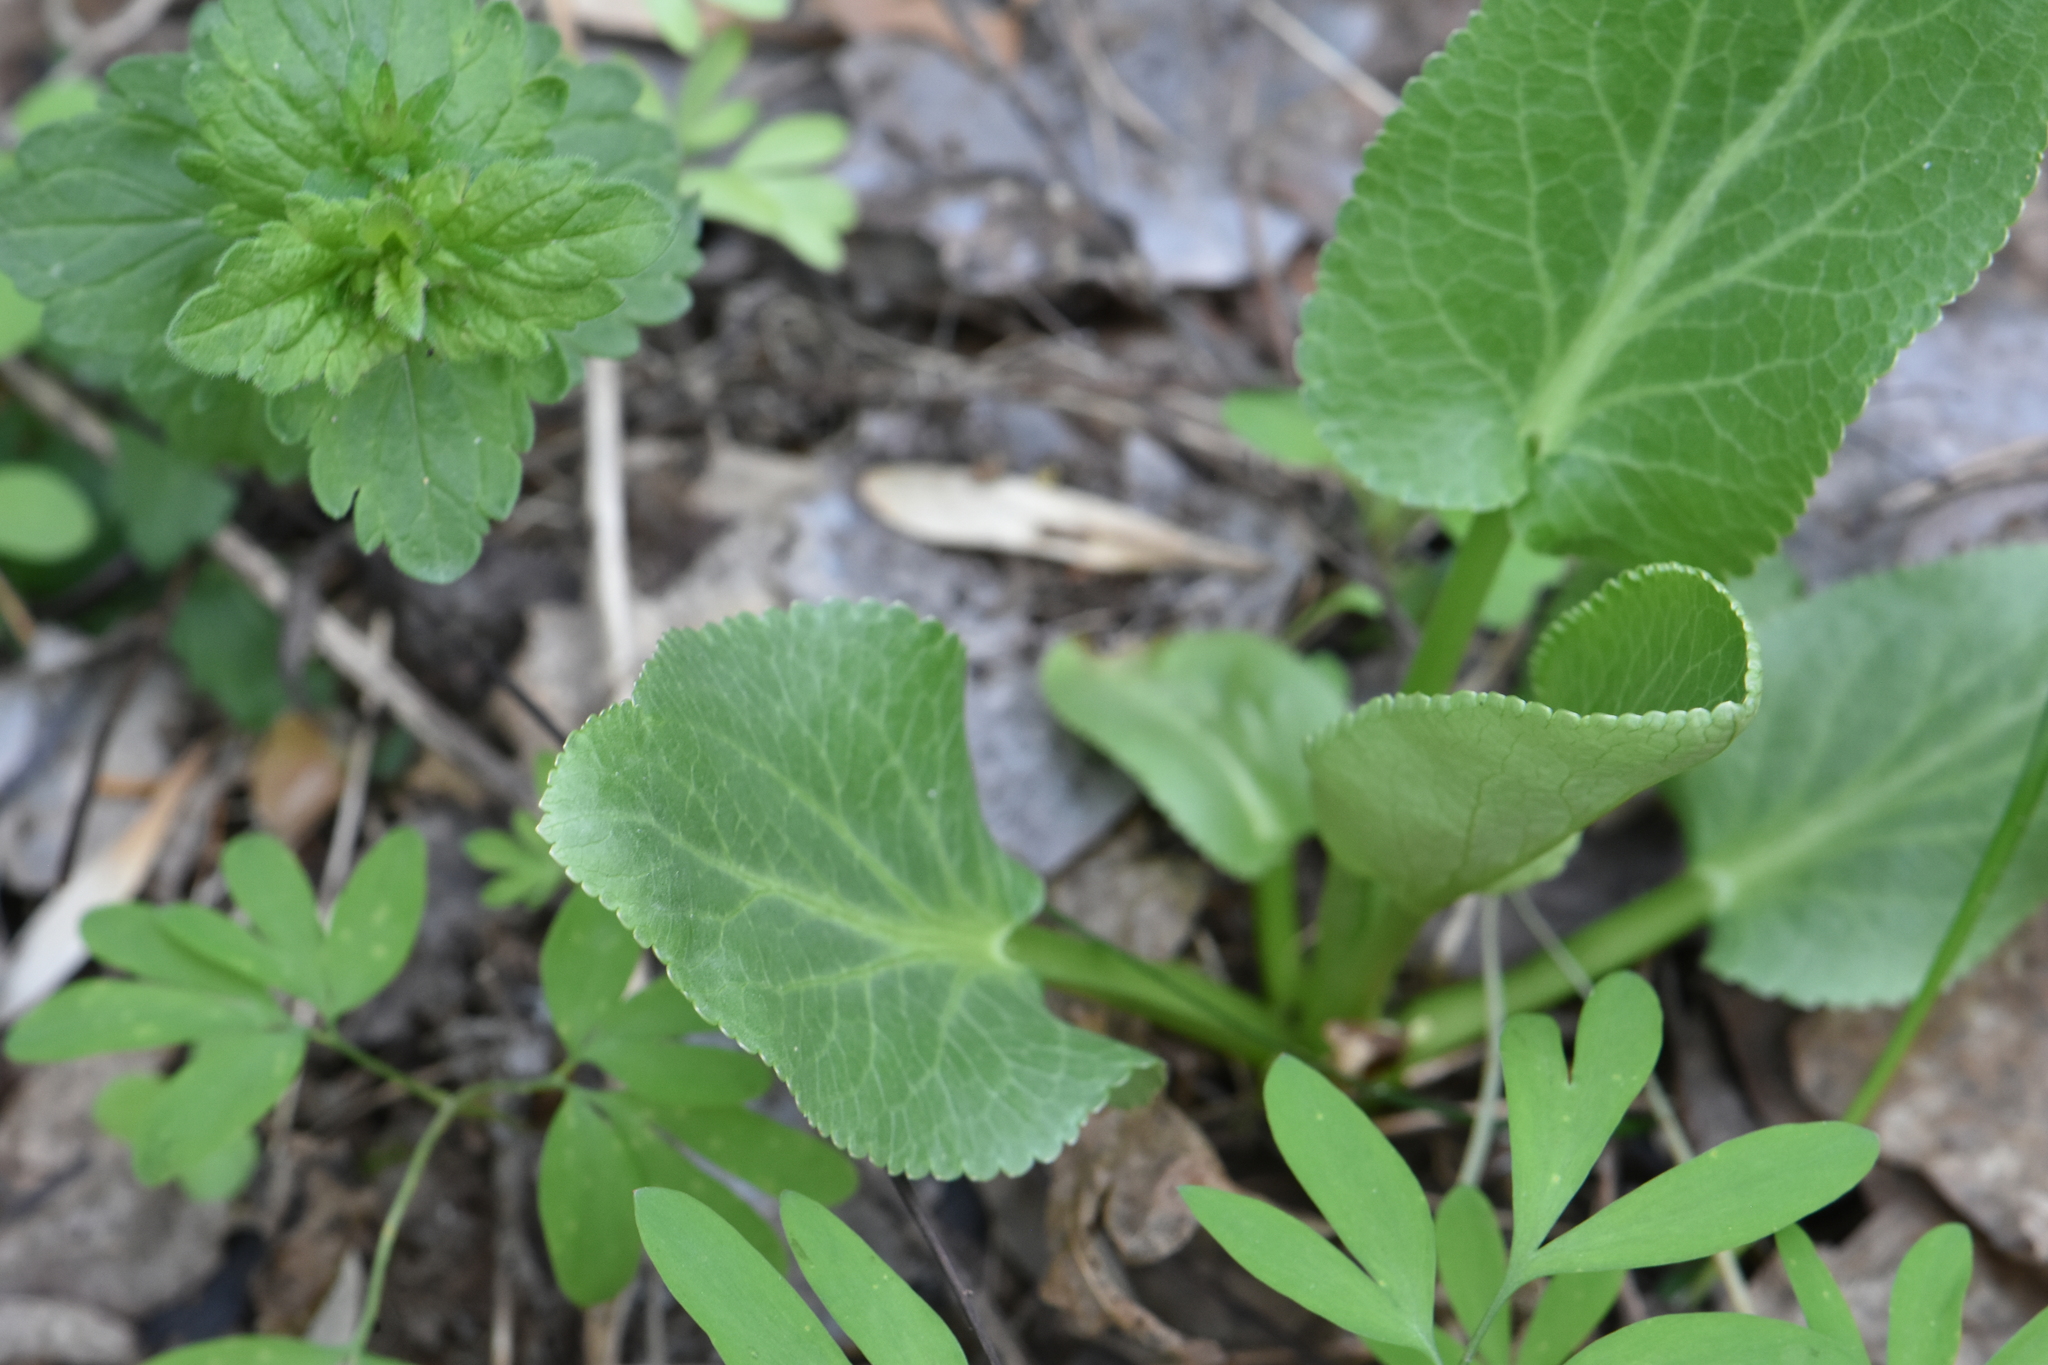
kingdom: Plantae
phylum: Tracheophyta
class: Magnoliopsida
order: Apiales
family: Apiaceae
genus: Eryngium
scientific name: Eryngium planum
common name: Blue eryngo
